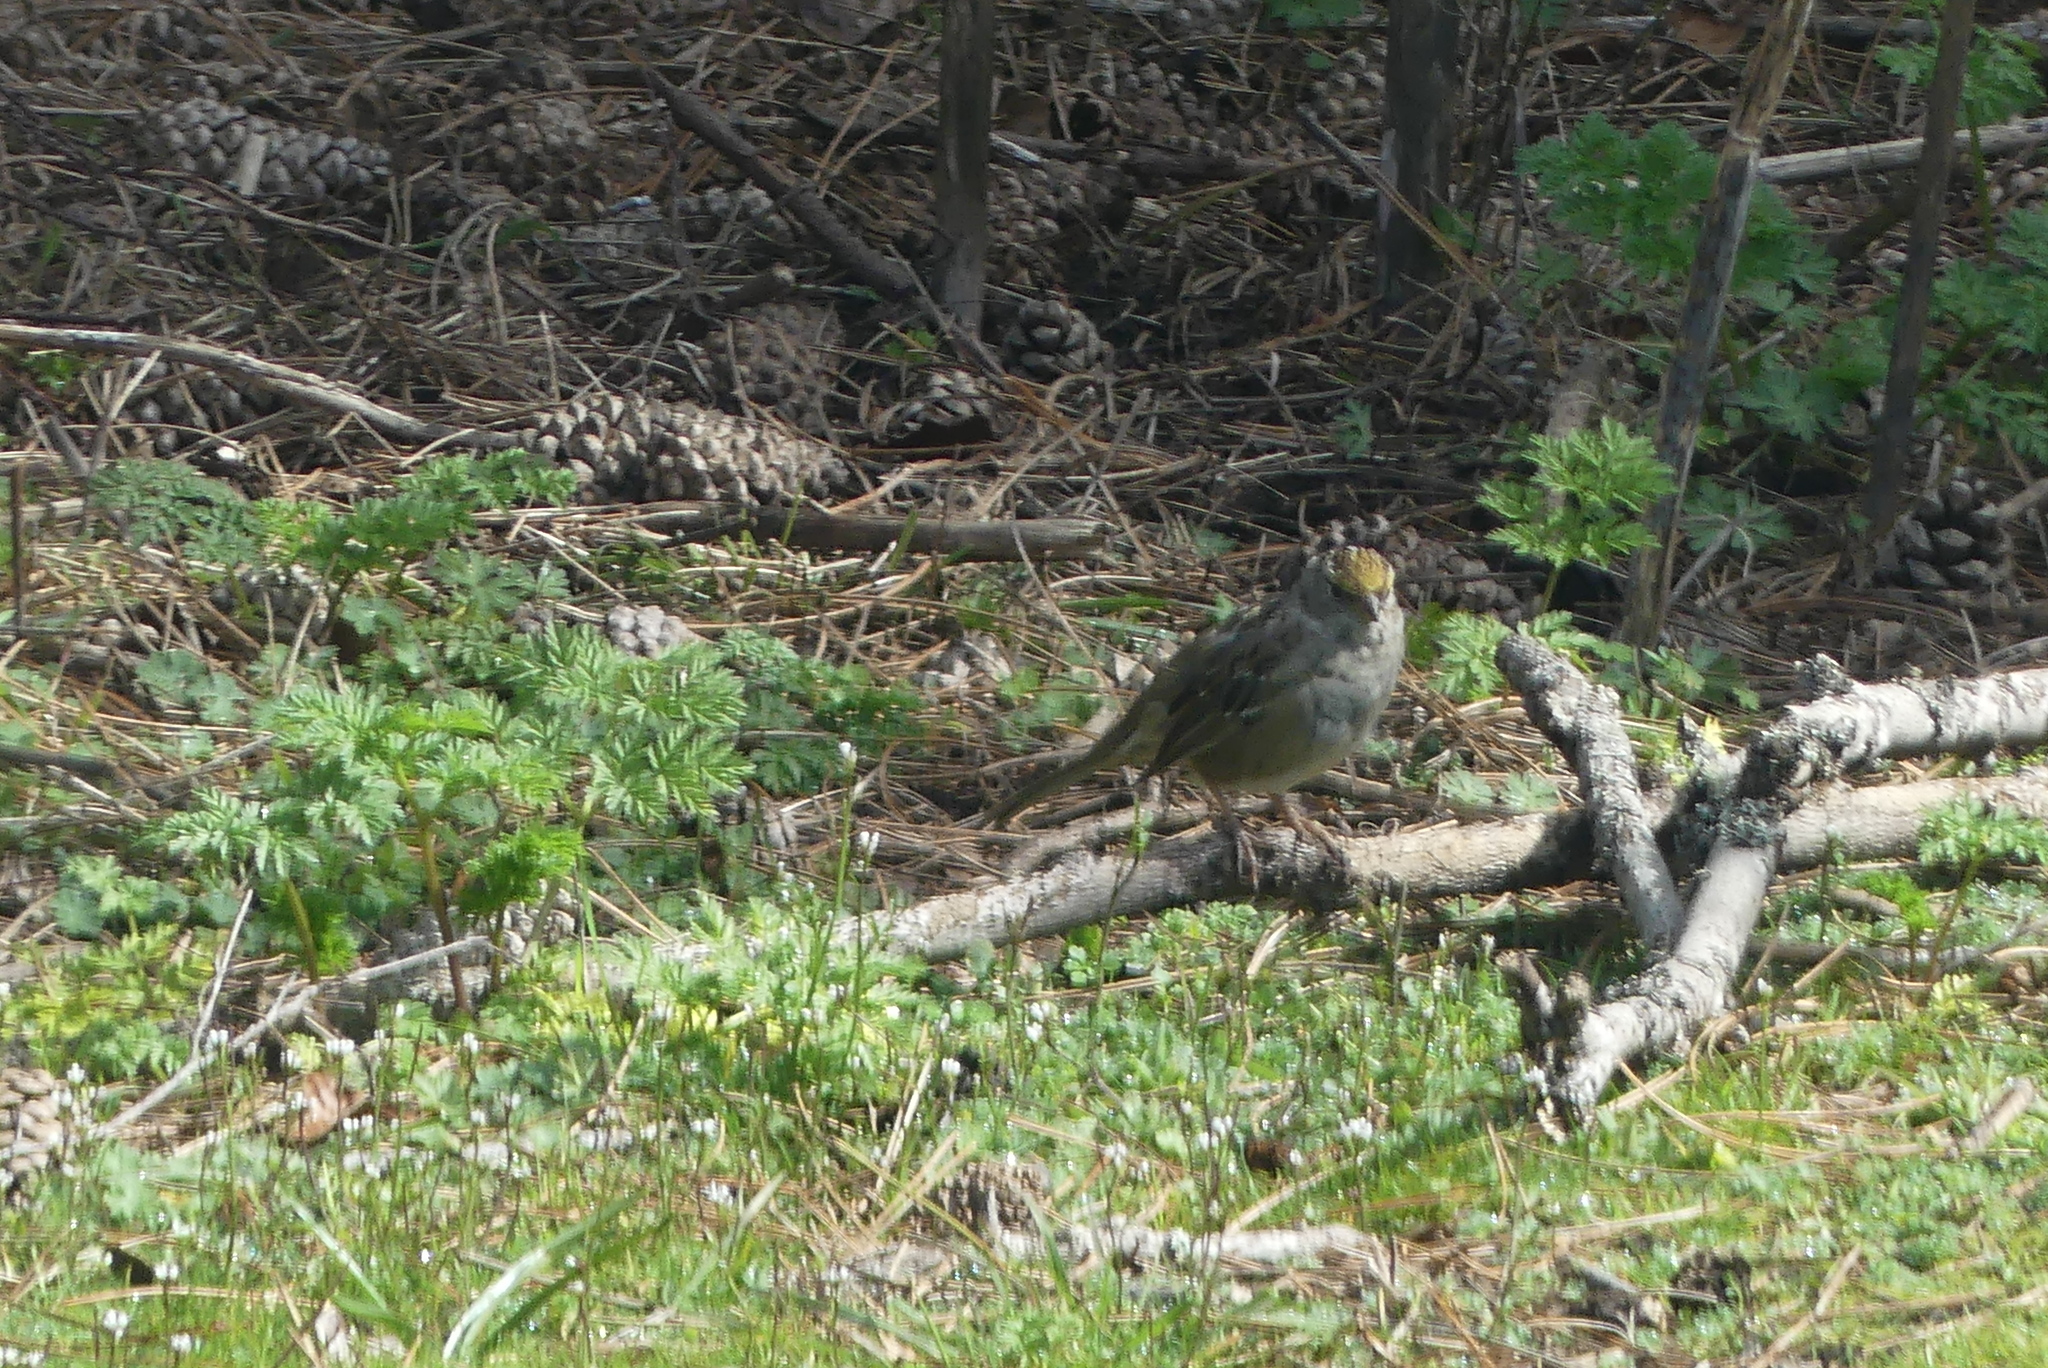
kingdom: Animalia
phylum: Chordata
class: Aves
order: Passeriformes
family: Passerellidae
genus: Zonotrichia
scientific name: Zonotrichia atricapilla
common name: Golden-crowned sparrow
